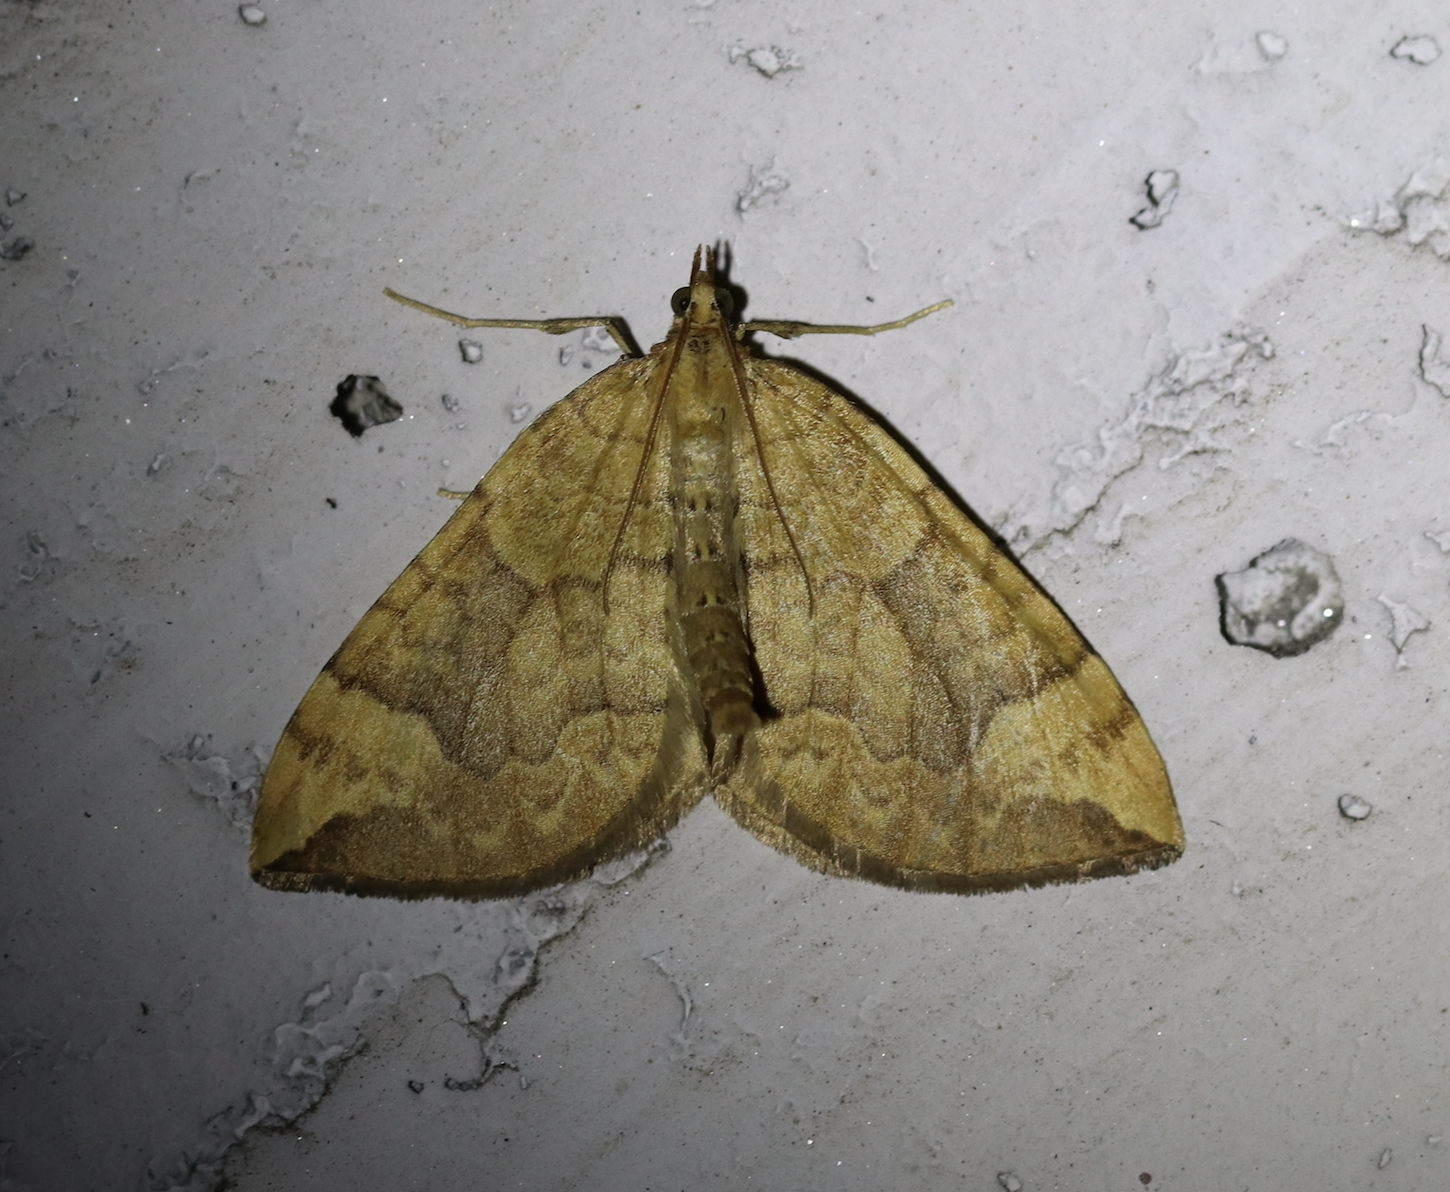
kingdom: Animalia
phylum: Arthropoda
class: Insecta
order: Lepidoptera
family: Geometridae
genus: Eulithis
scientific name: Eulithis populata
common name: Northern spinach
